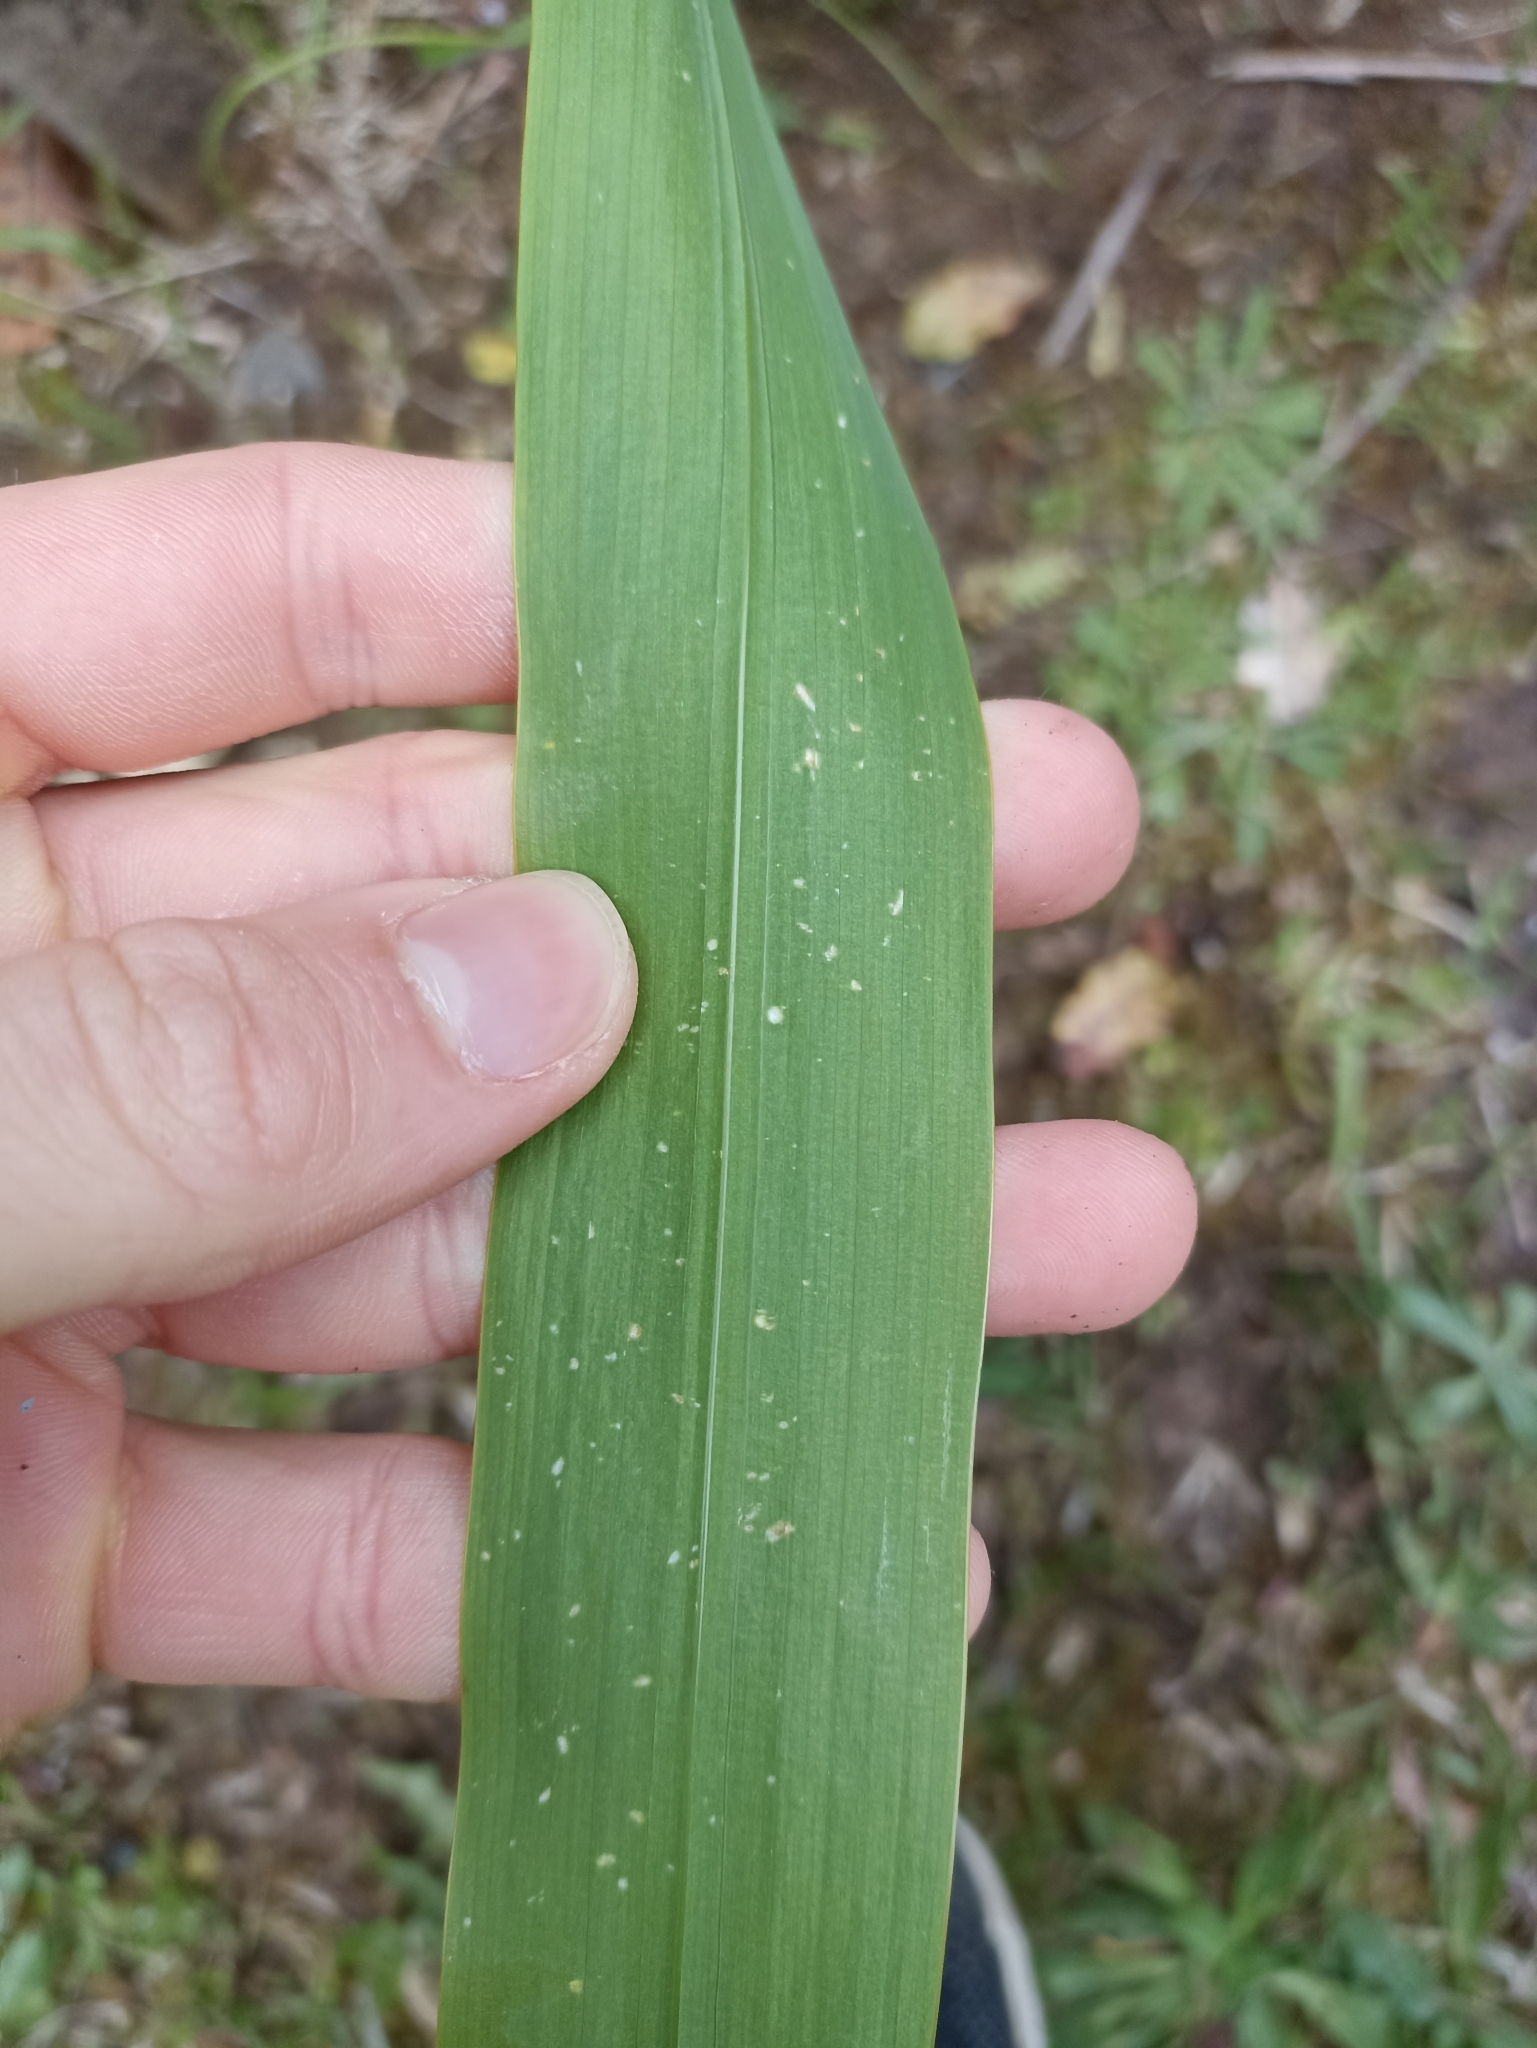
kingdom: Plantae
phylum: Tracheophyta
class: Liliopsida
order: Asparagales
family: Iridaceae
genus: Watsonia
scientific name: Watsonia meriana
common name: Bulbil bugle-lily
